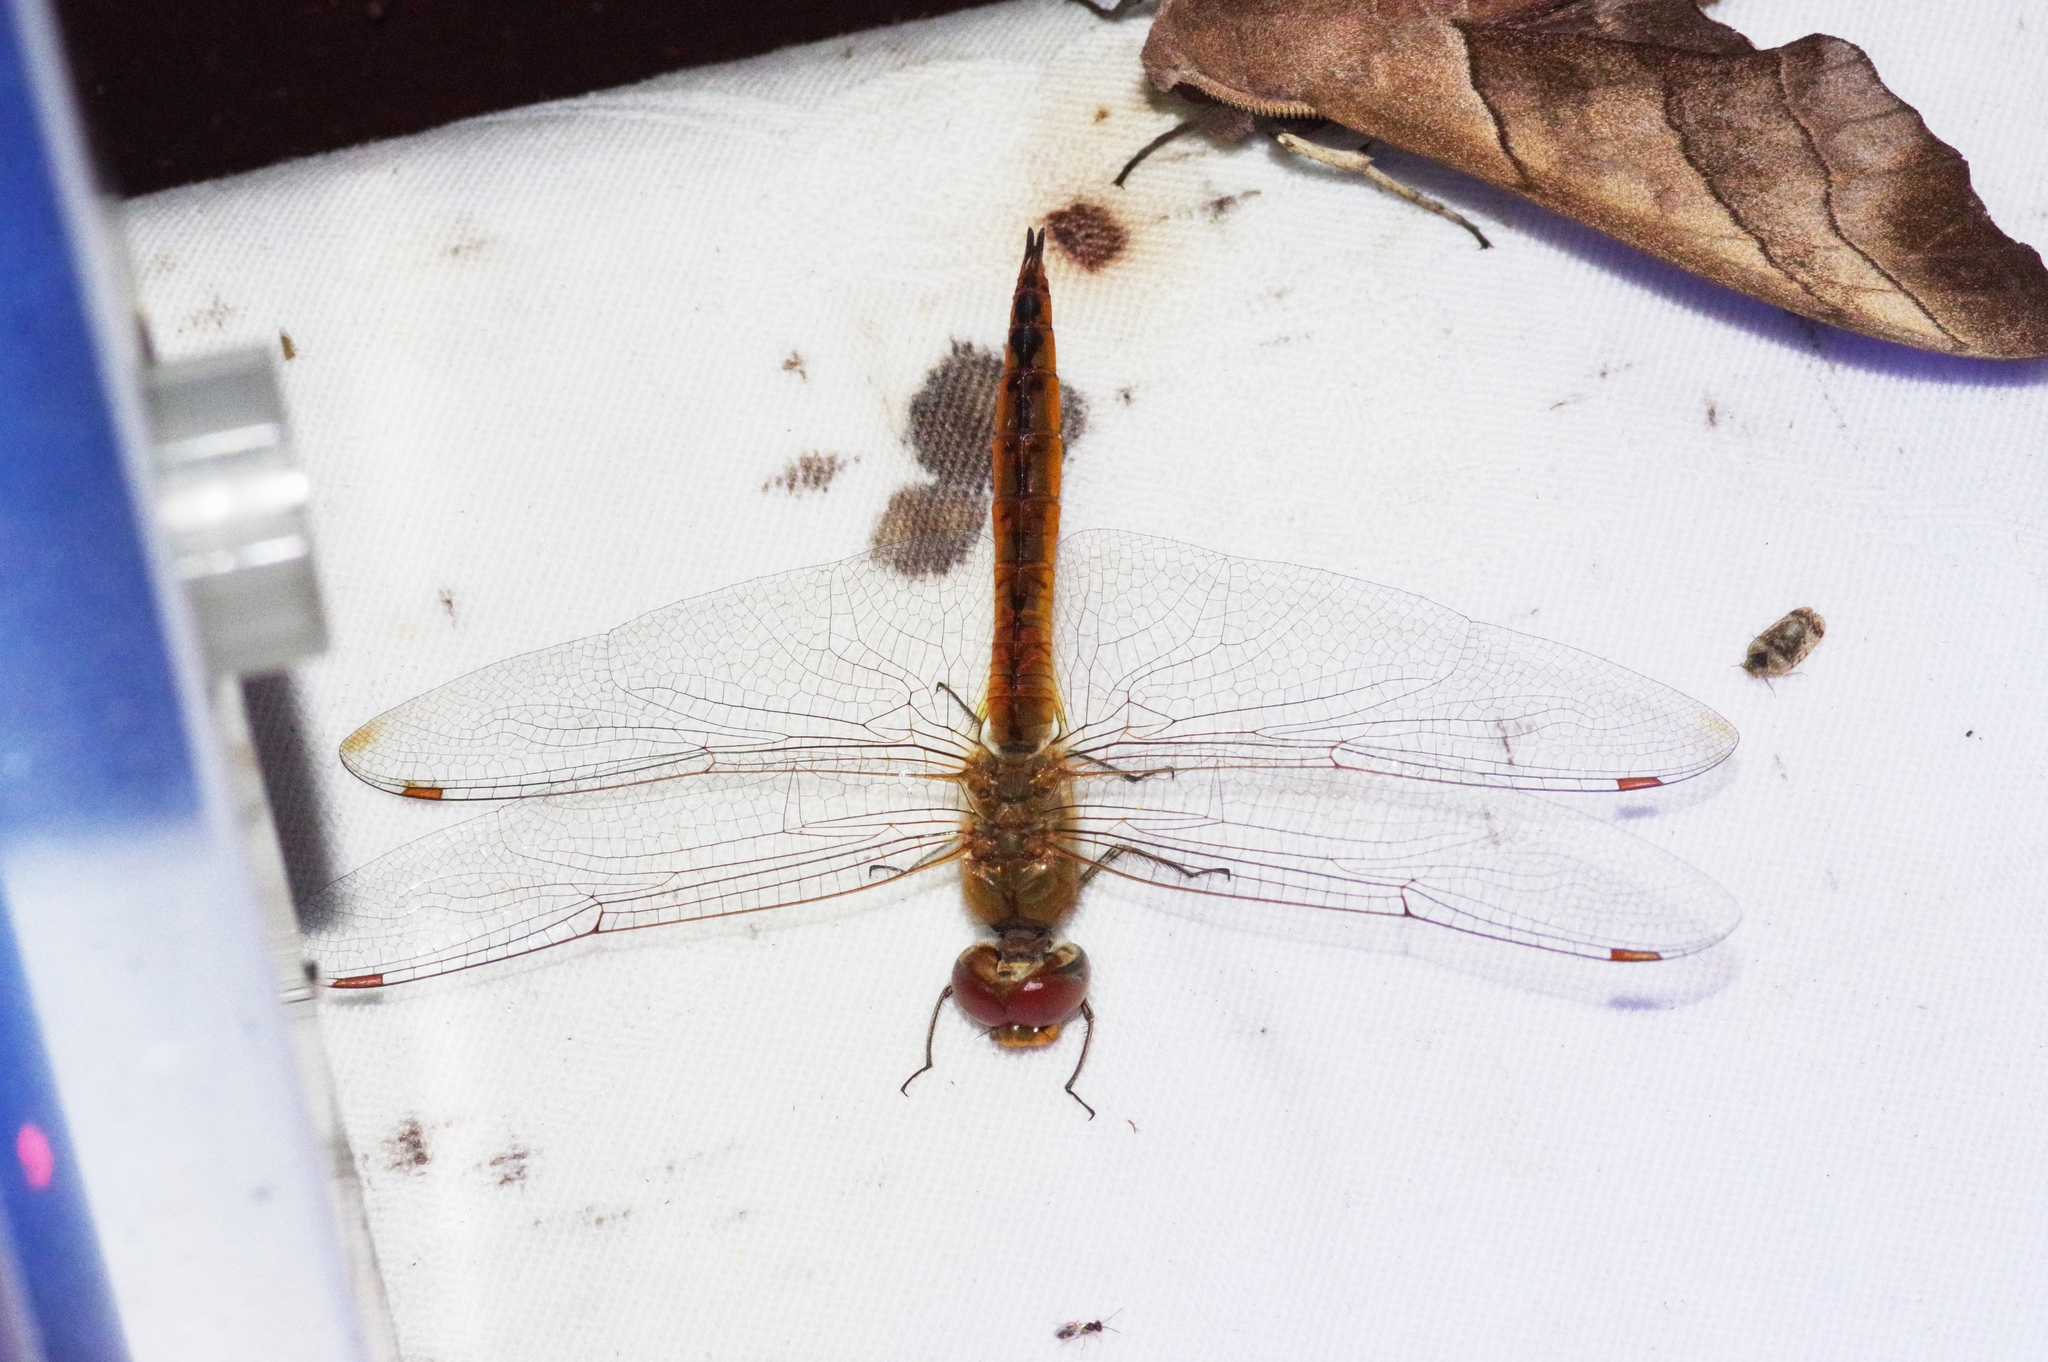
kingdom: Animalia
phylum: Arthropoda
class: Insecta
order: Odonata
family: Libellulidae
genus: Pantala
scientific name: Pantala flavescens
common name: Wandering glider
